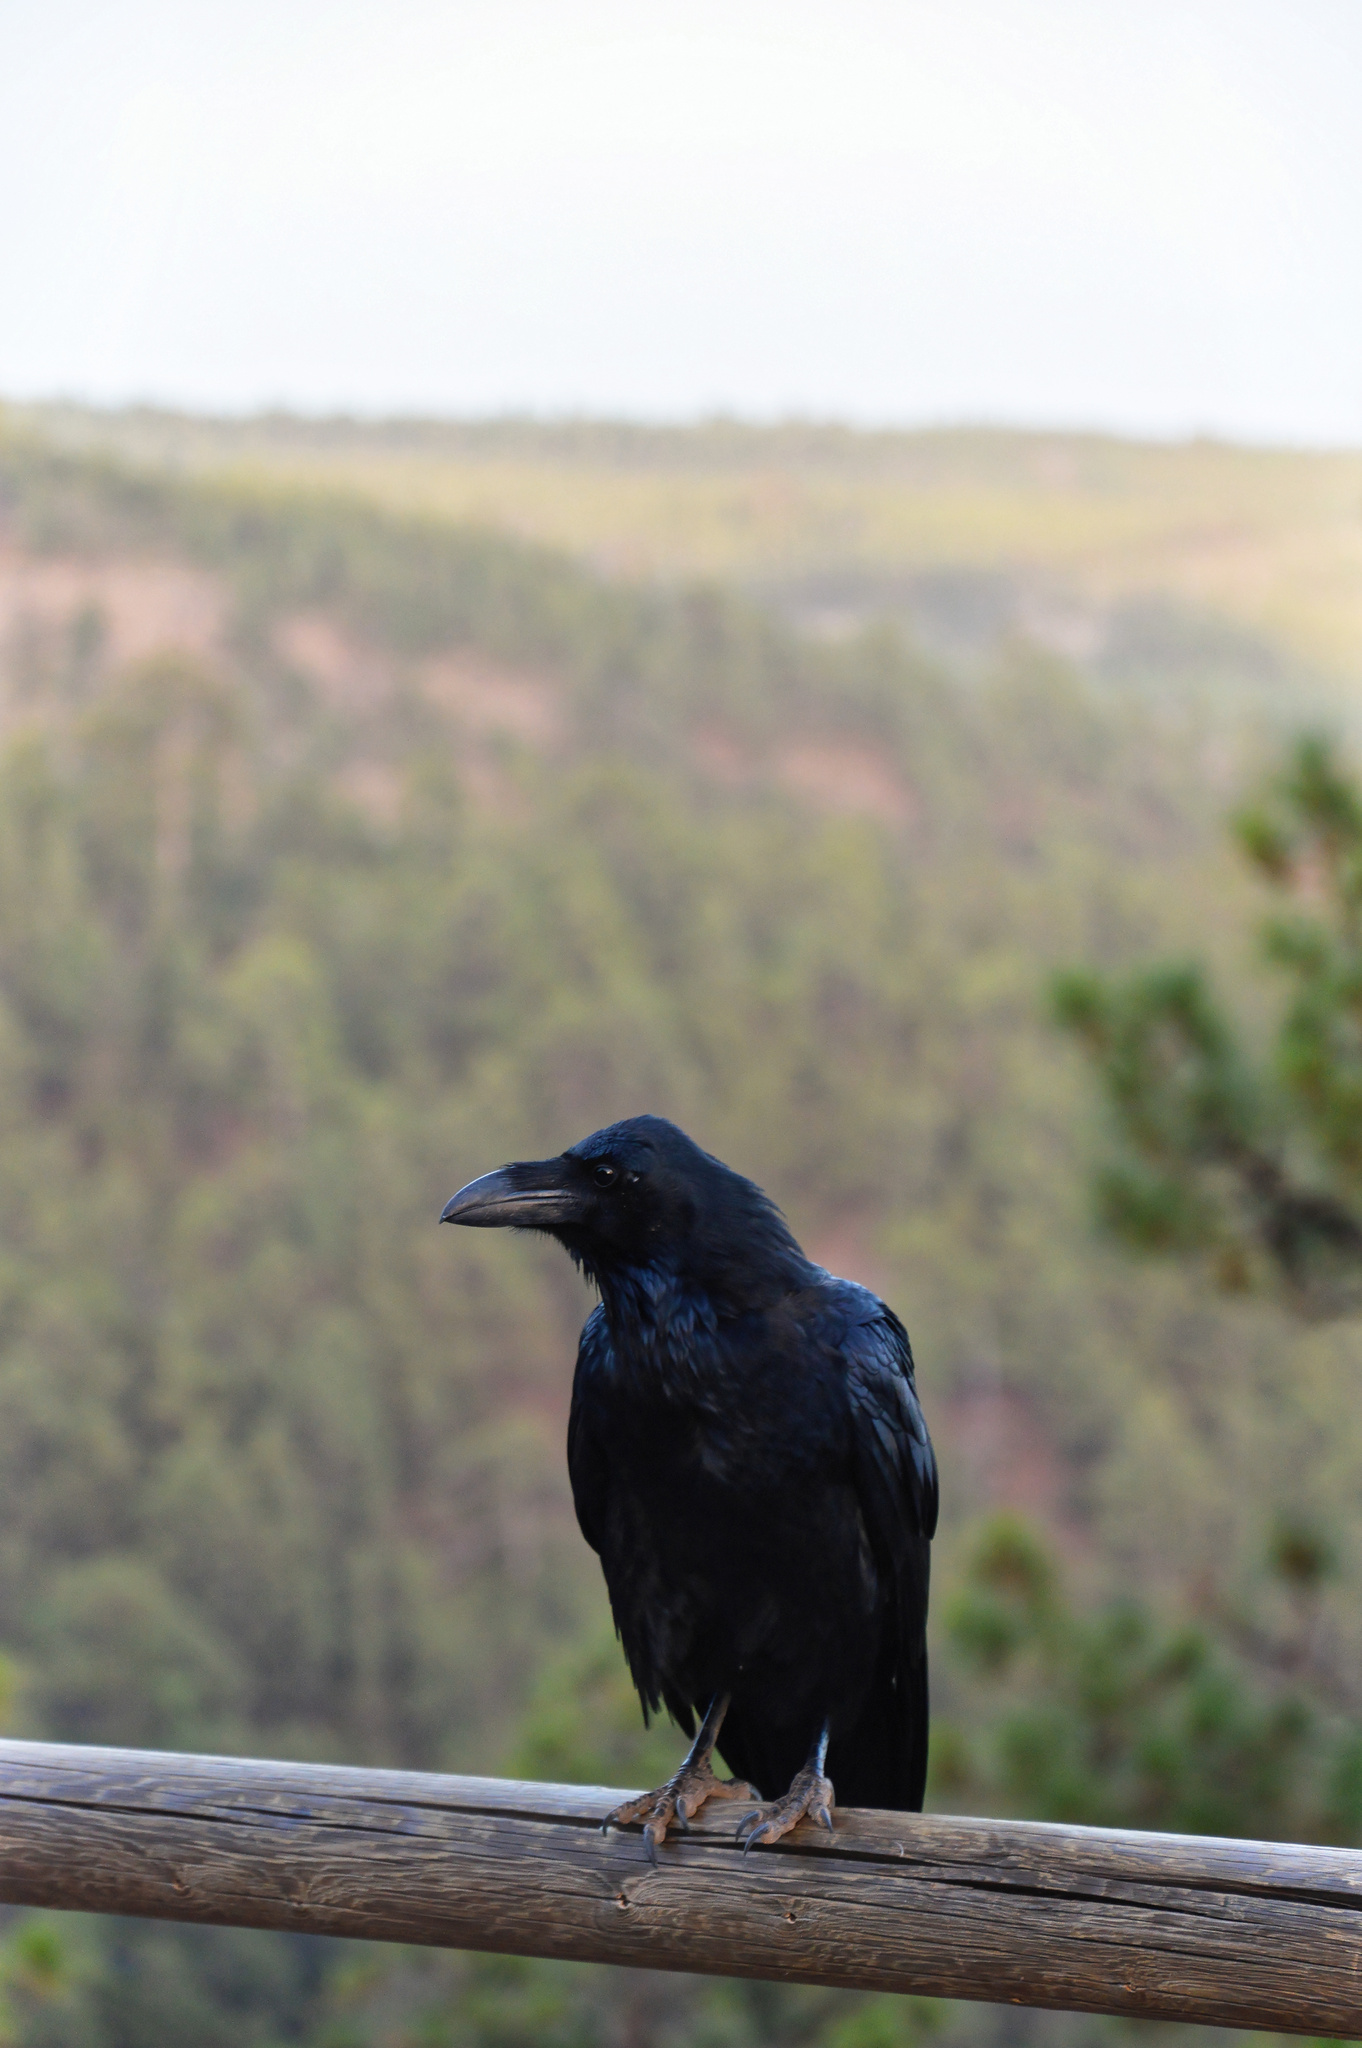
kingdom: Animalia
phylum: Chordata
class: Aves
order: Passeriformes
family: Corvidae
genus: Corvus
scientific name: Corvus corax
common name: Common raven
